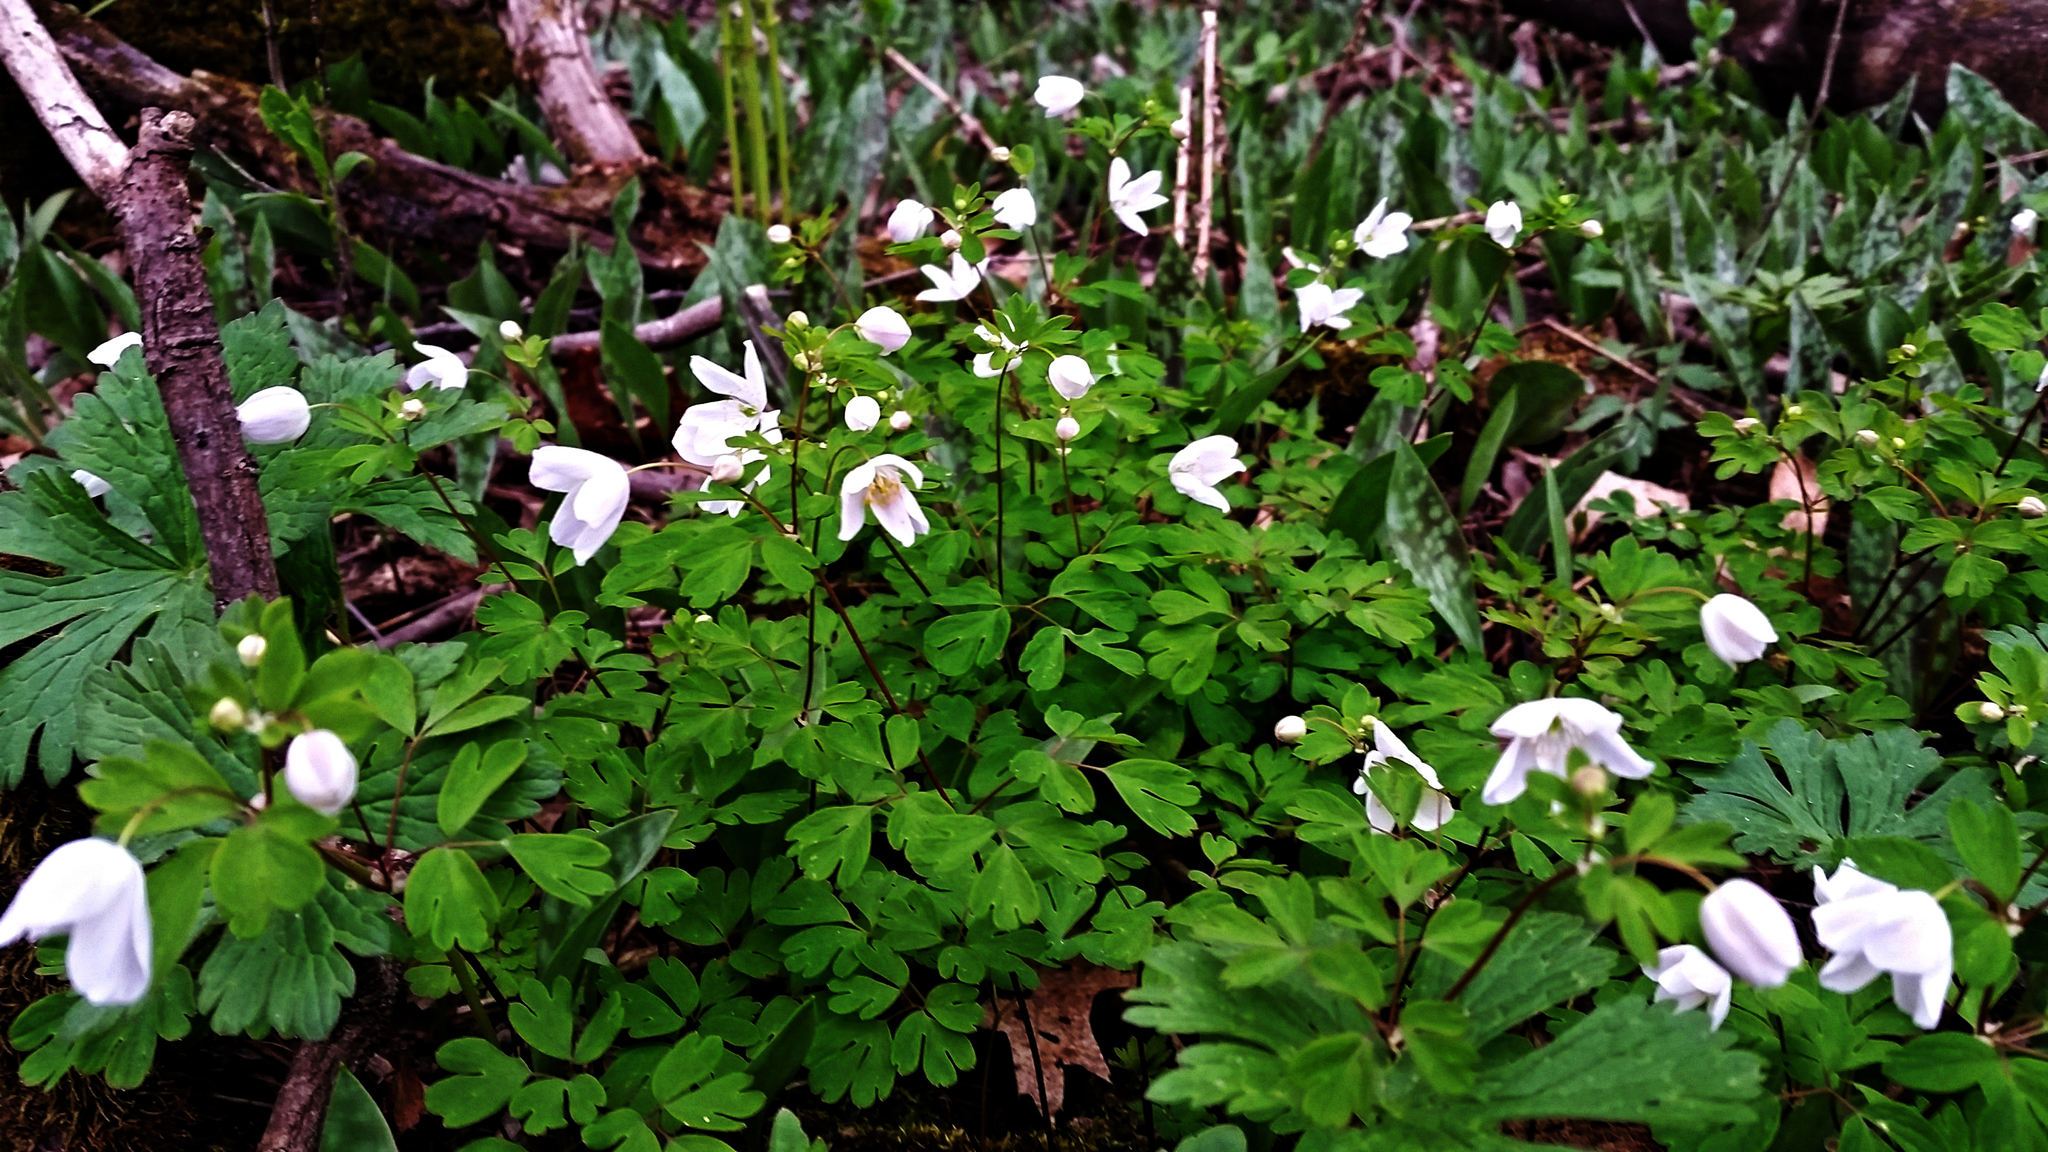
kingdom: Plantae
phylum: Tracheophyta
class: Magnoliopsida
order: Ranunculales
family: Ranunculaceae
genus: Enemion
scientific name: Enemion biternatum
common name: Eastern false rue-anemone
